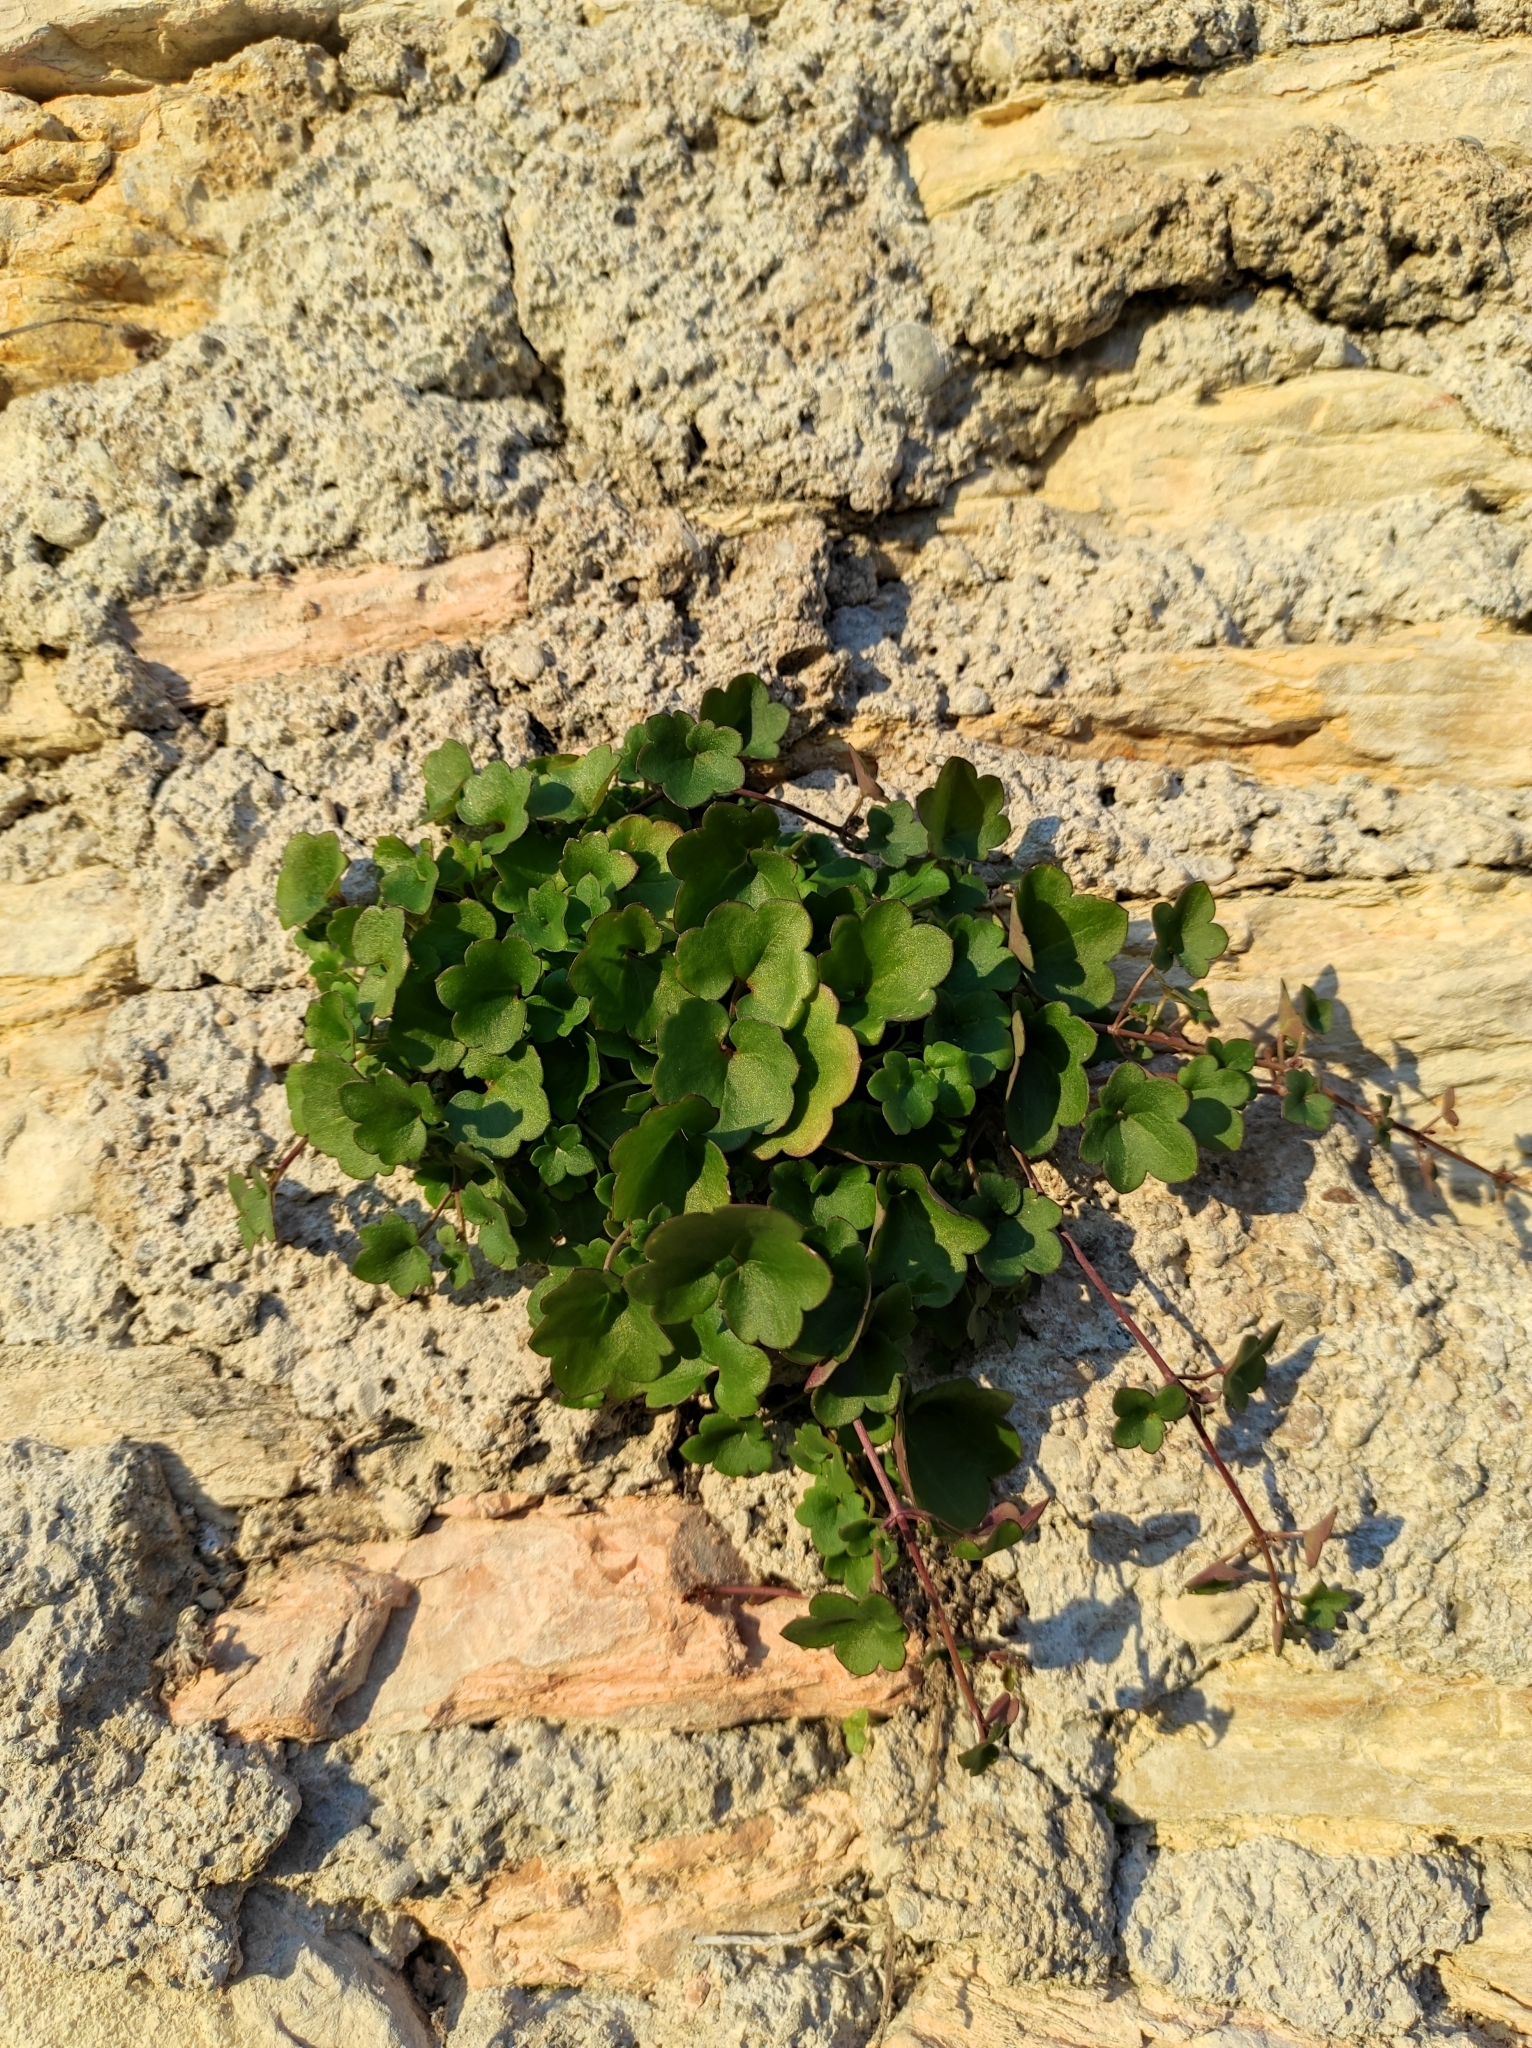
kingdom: Plantae
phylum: Tracheophyta
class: Magnoliopsida
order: Lamiales
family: Plantaginaceae
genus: Cymbalaria
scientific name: Cymbalaria muralis
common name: Ivy-leaved toadflax
